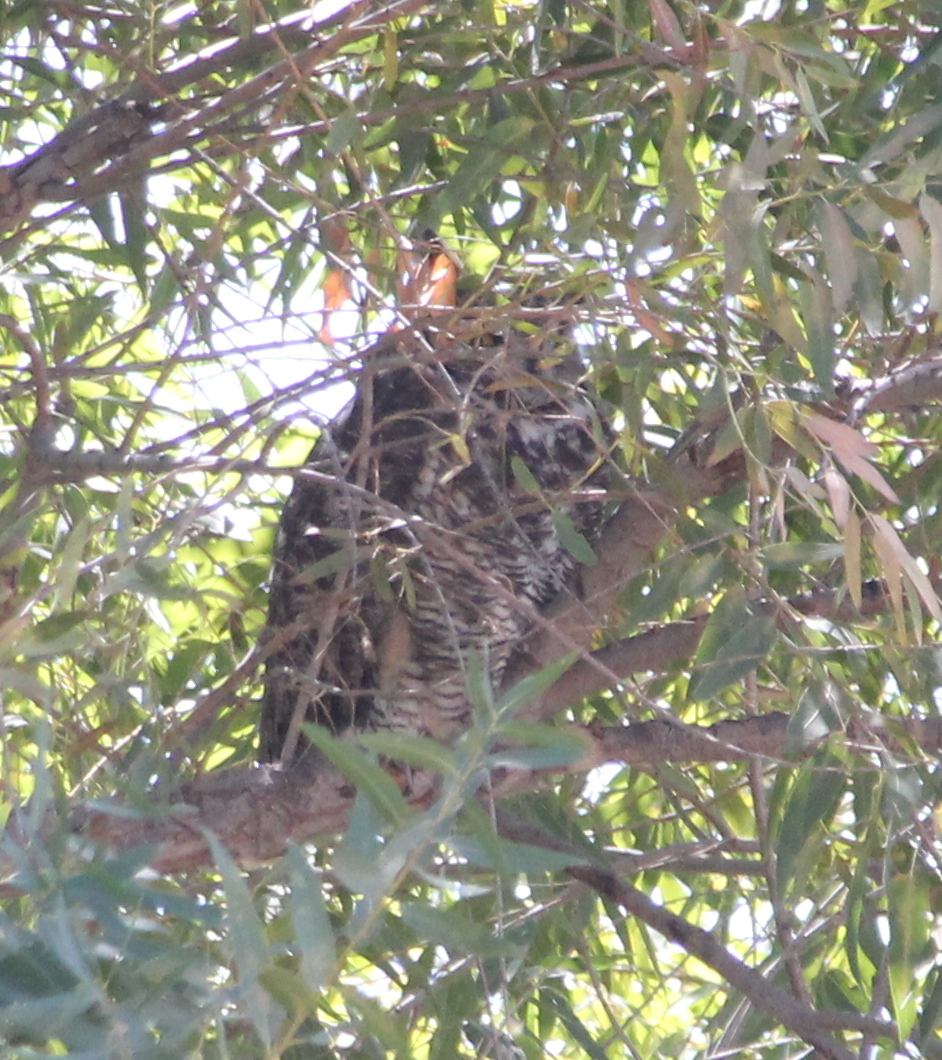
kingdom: Animalia
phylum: Chordata
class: Aves
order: Strigiformes
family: Strigidae
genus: Bubo
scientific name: Bubo virginianus
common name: Great horned owl
